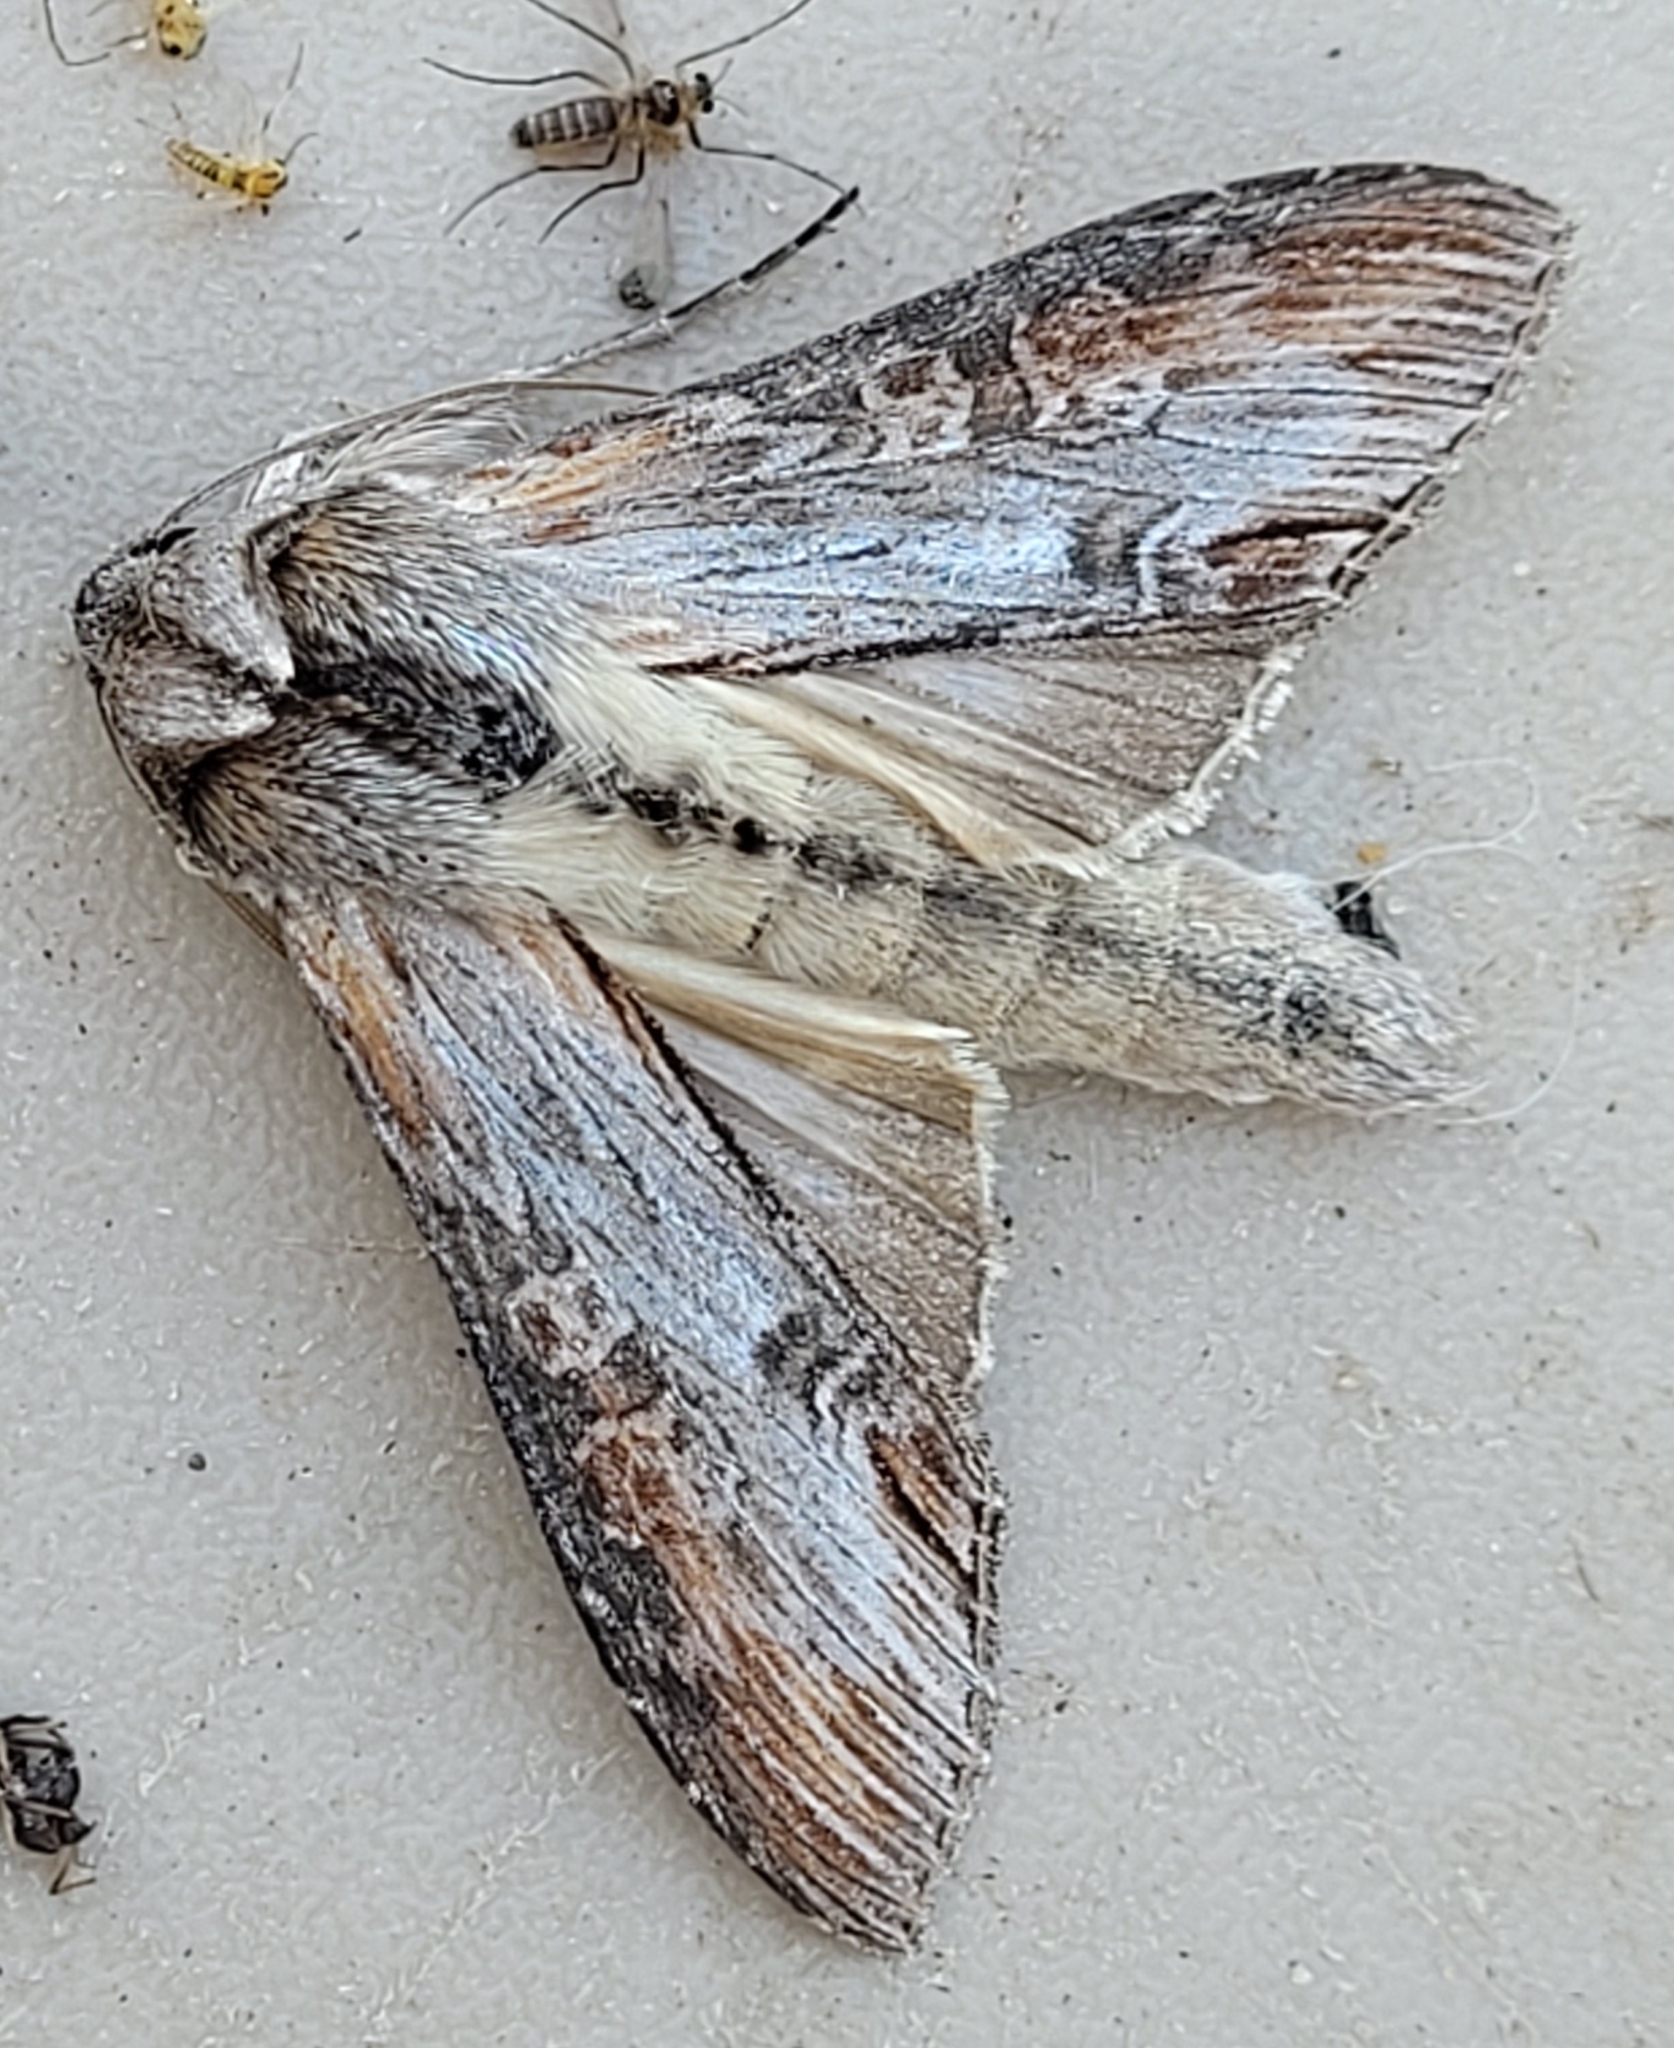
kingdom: Animalia
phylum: Arthropoda
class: Insecta
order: Lepidoptera
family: Noctuidae
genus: Cucullia
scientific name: Cucullia montanae
